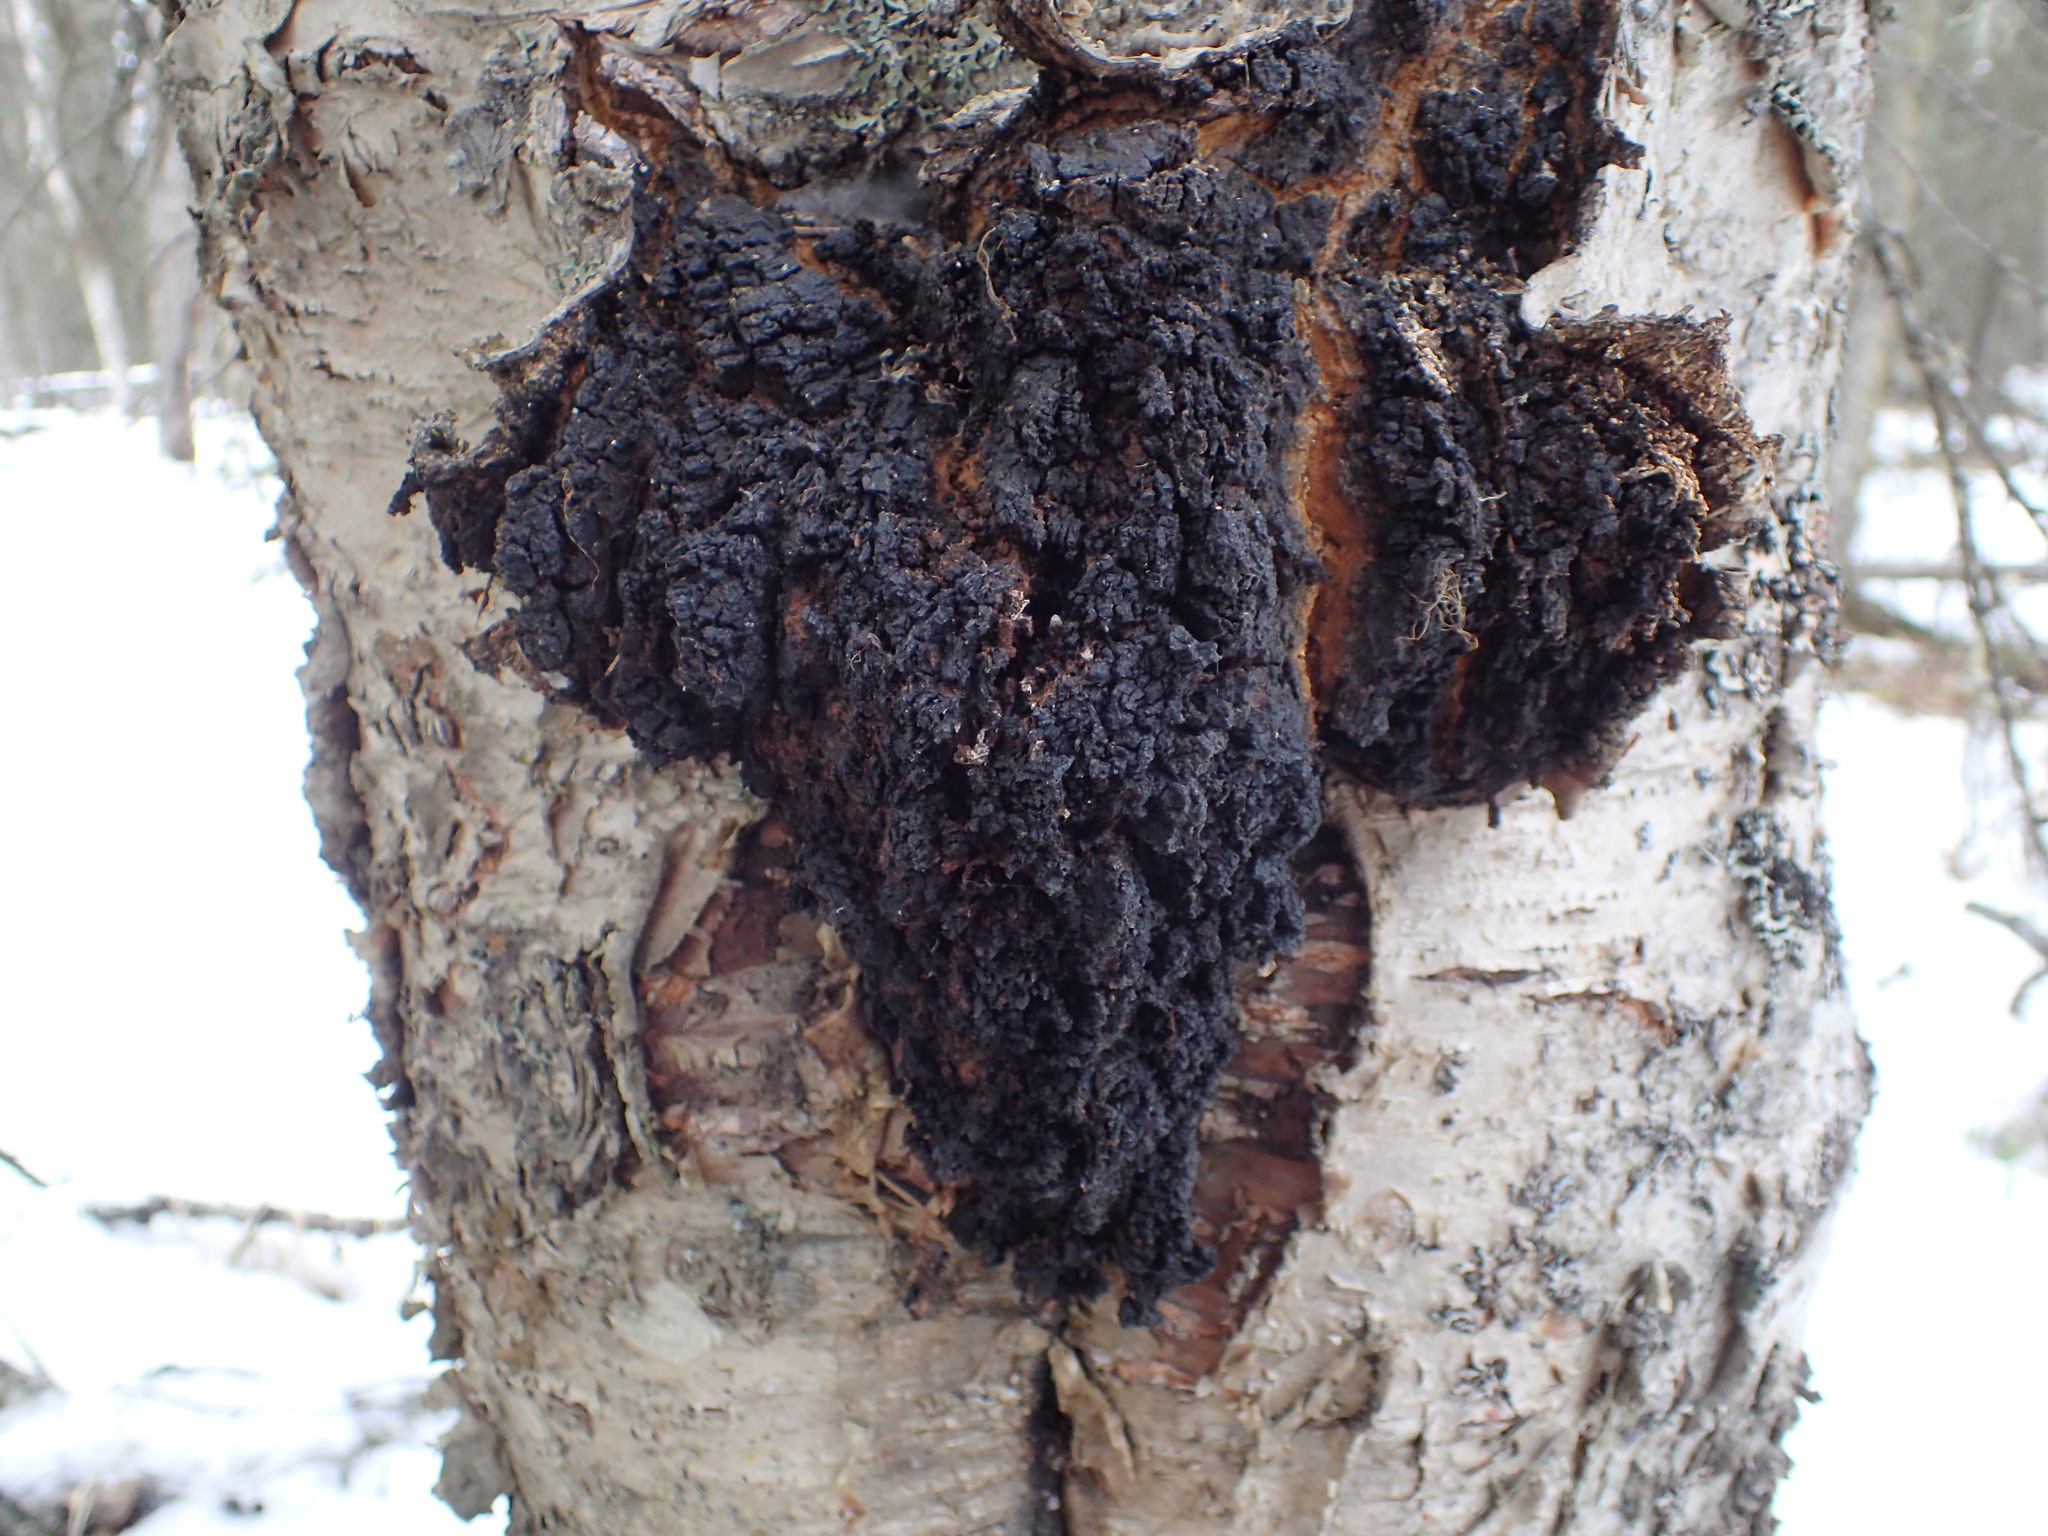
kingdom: Fungi
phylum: Basidiomycota
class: Agaricomycetes
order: Hymenochaetales
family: Hymenochaetaceae
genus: Inonotus
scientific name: Inonotus obliquus
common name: Chaga
